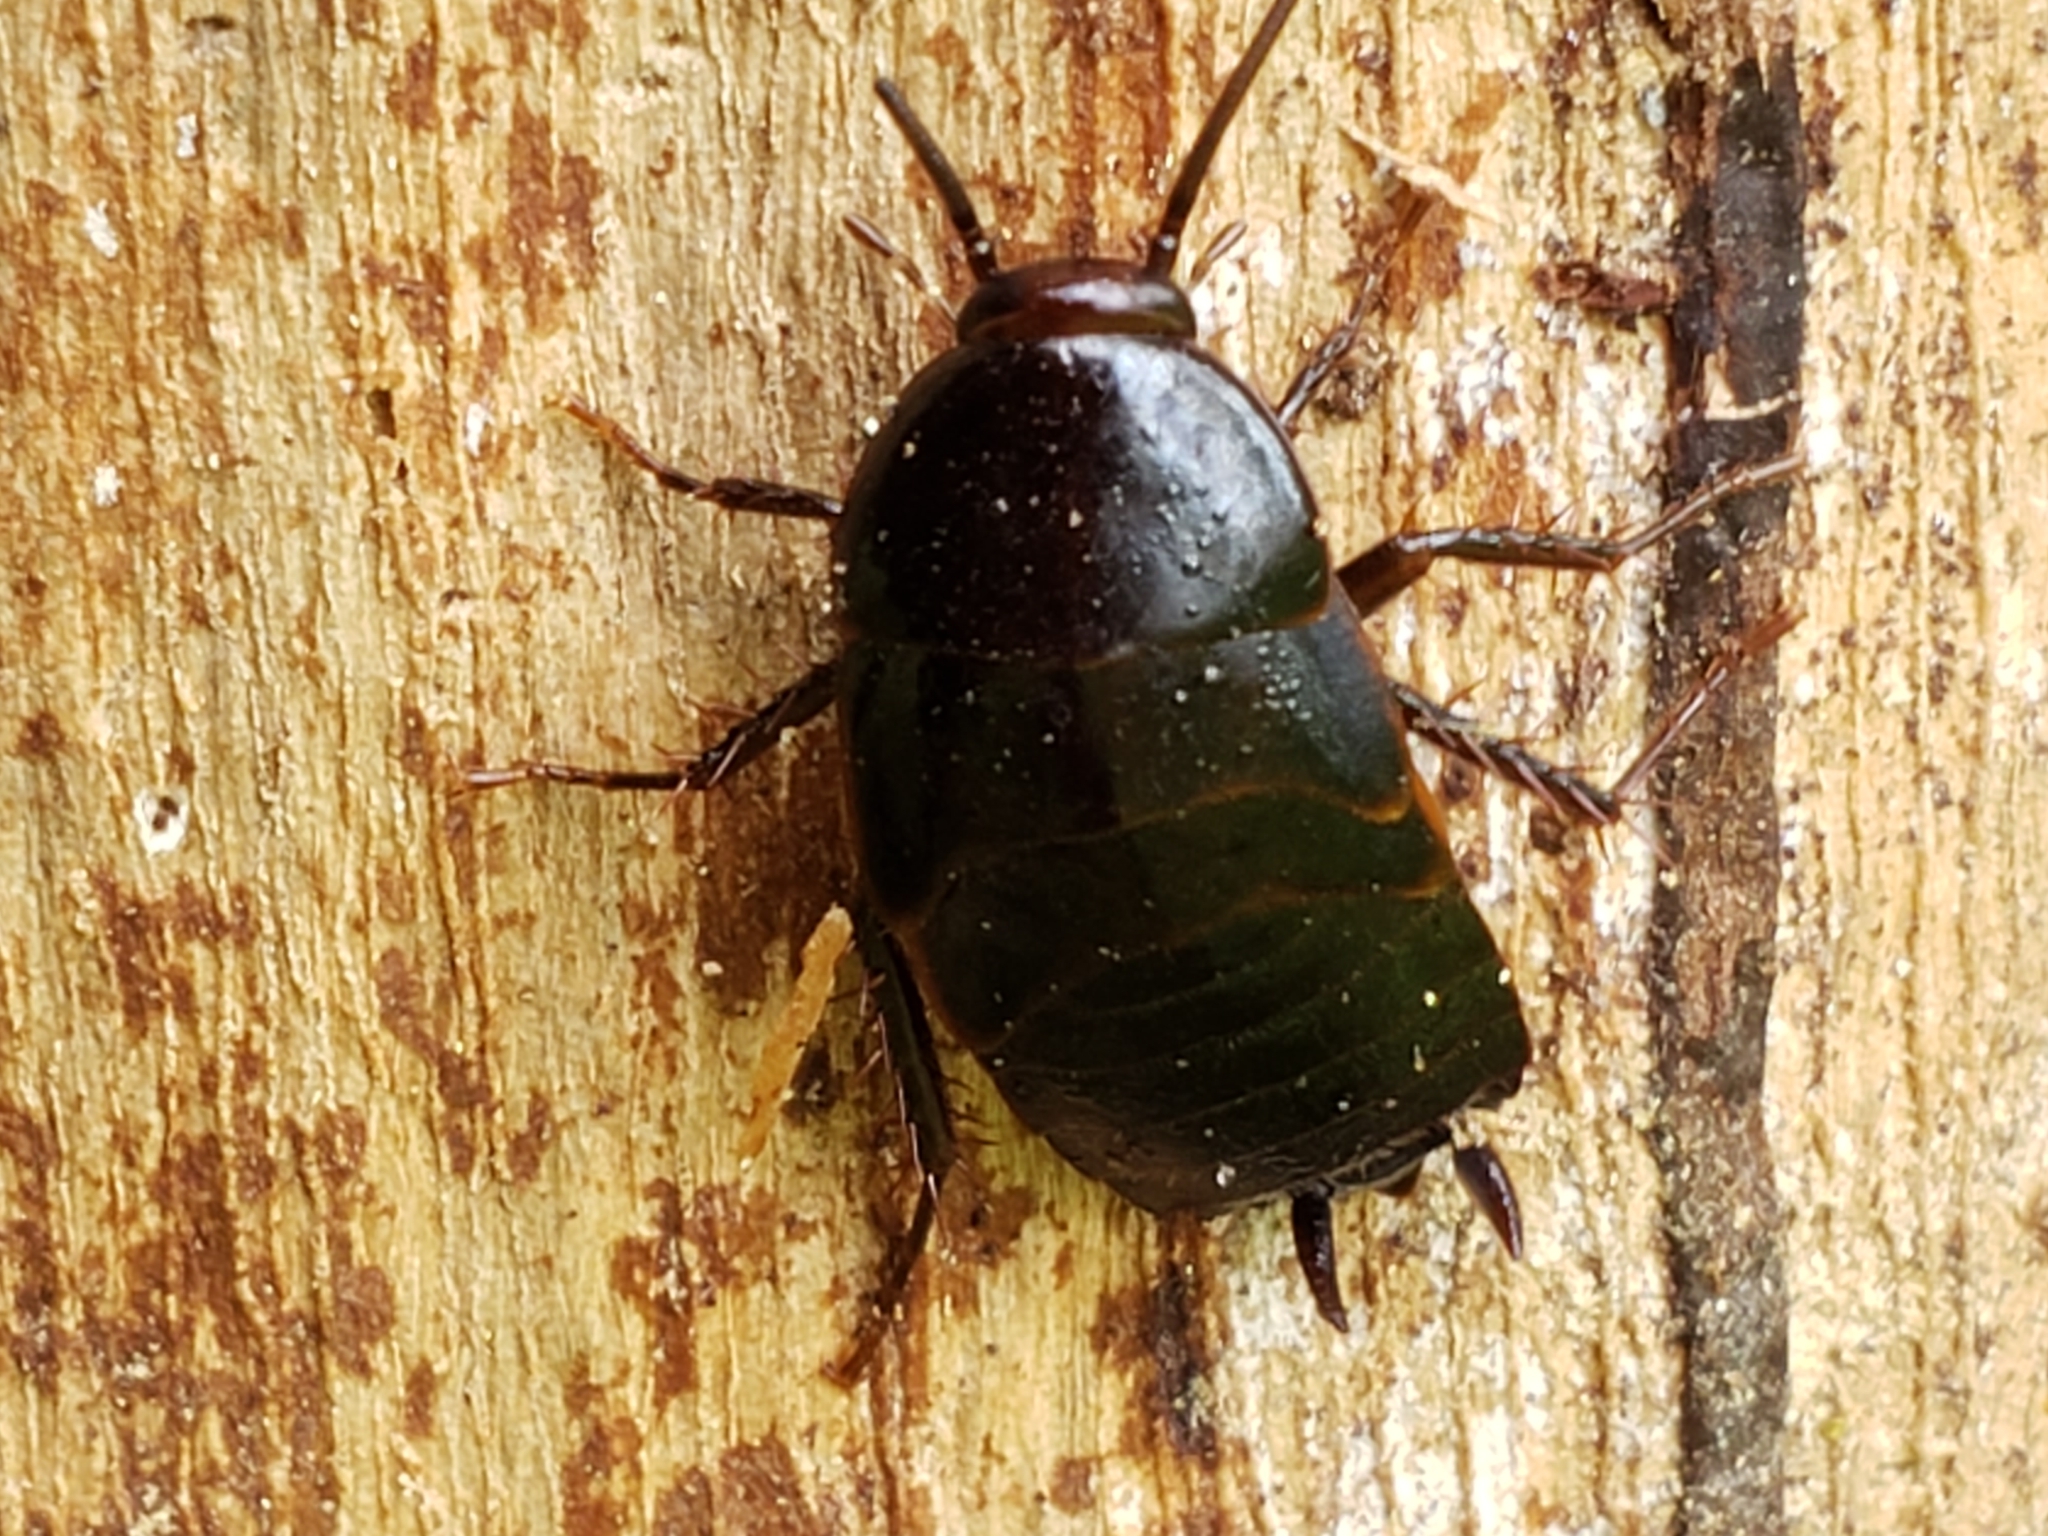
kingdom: Animalia
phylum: Arthropoda
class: Insecta
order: Blattodea
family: Blattidae
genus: Blatta
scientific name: Blatta orientalis
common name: Oriental cockroach
